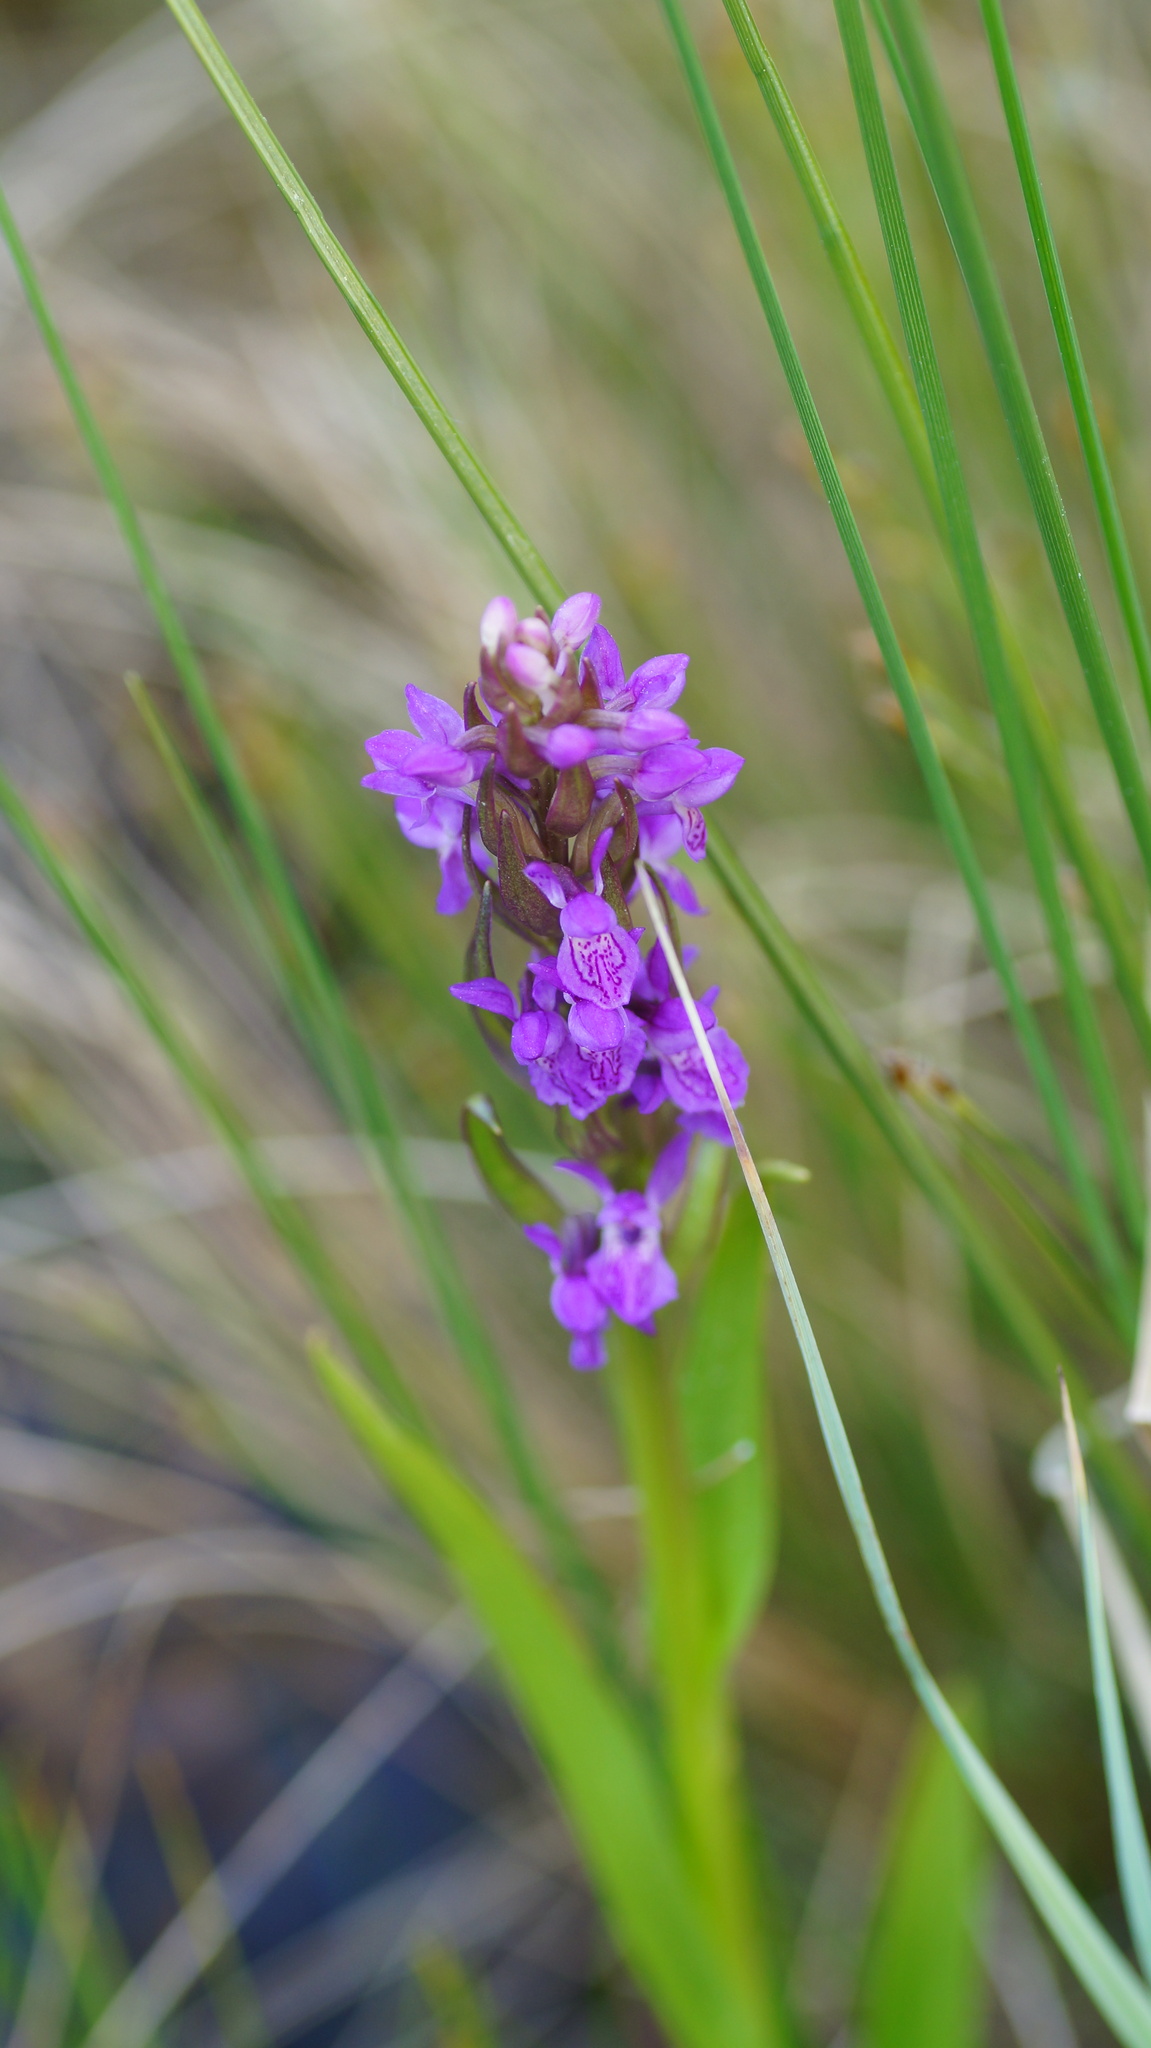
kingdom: Plantae
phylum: Tracheophyta
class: Liliopsida
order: Asparagales
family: Orchidaceae
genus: Dactylorhiza
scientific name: Dactylorhiza incarnata
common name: Early marsh-orchid
